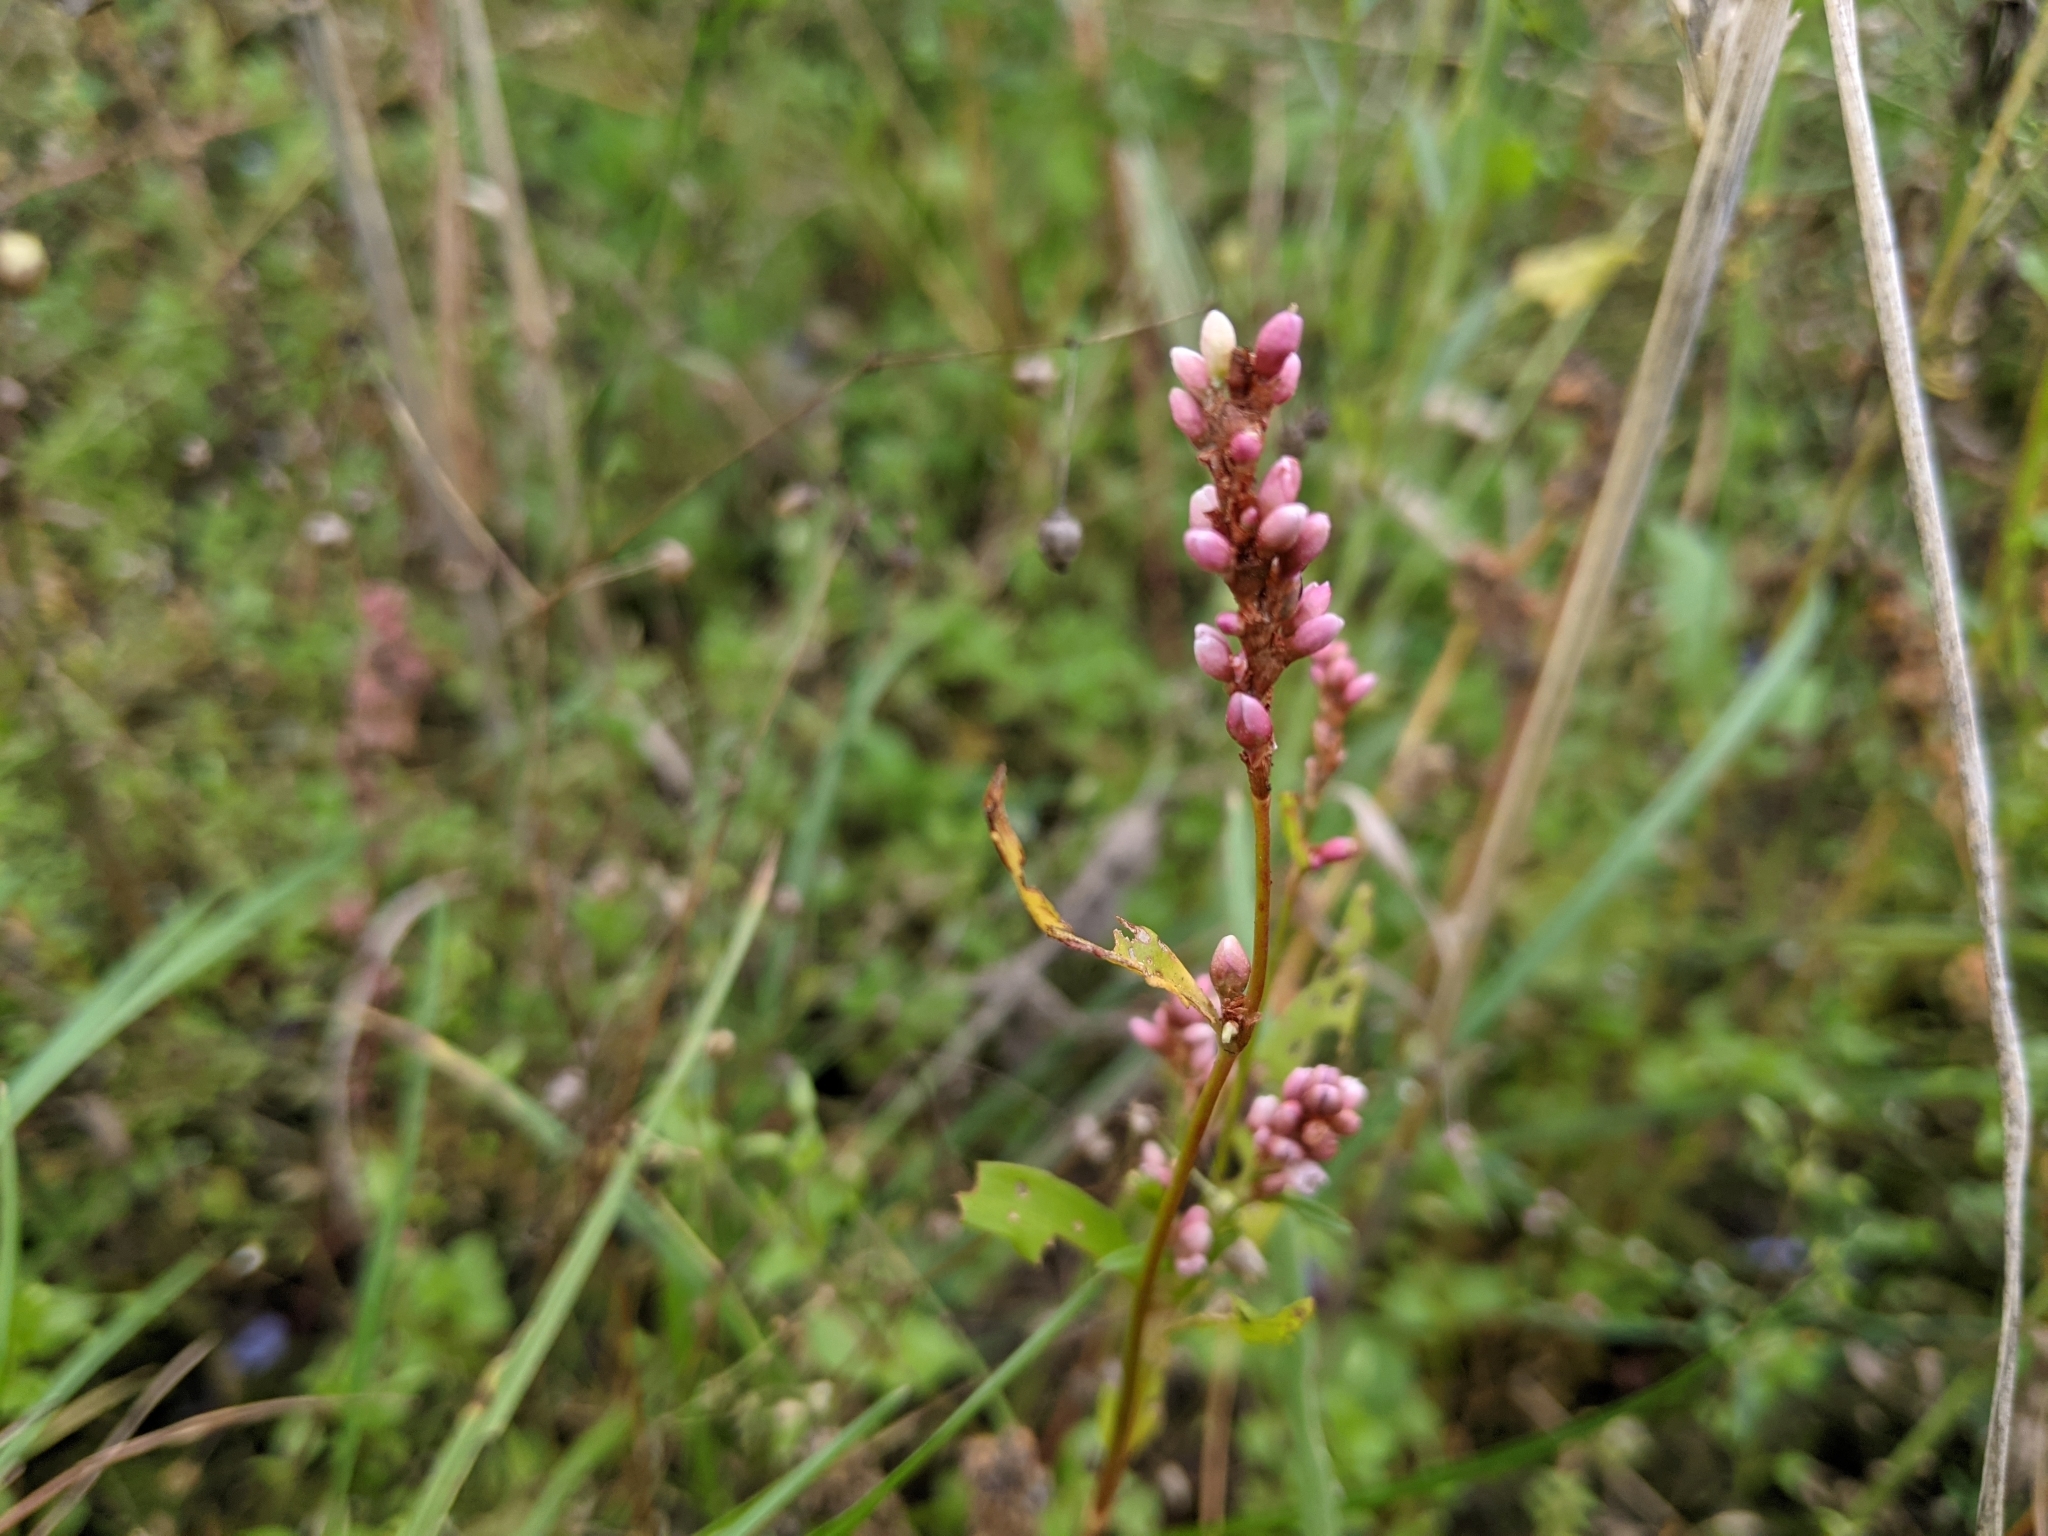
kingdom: Plantae
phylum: Tracheophyta
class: Magnoliopsida
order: Caryophyllales
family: Polygonaceae
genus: Persicaria
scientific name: Persicaria maculosa
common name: Redshank
